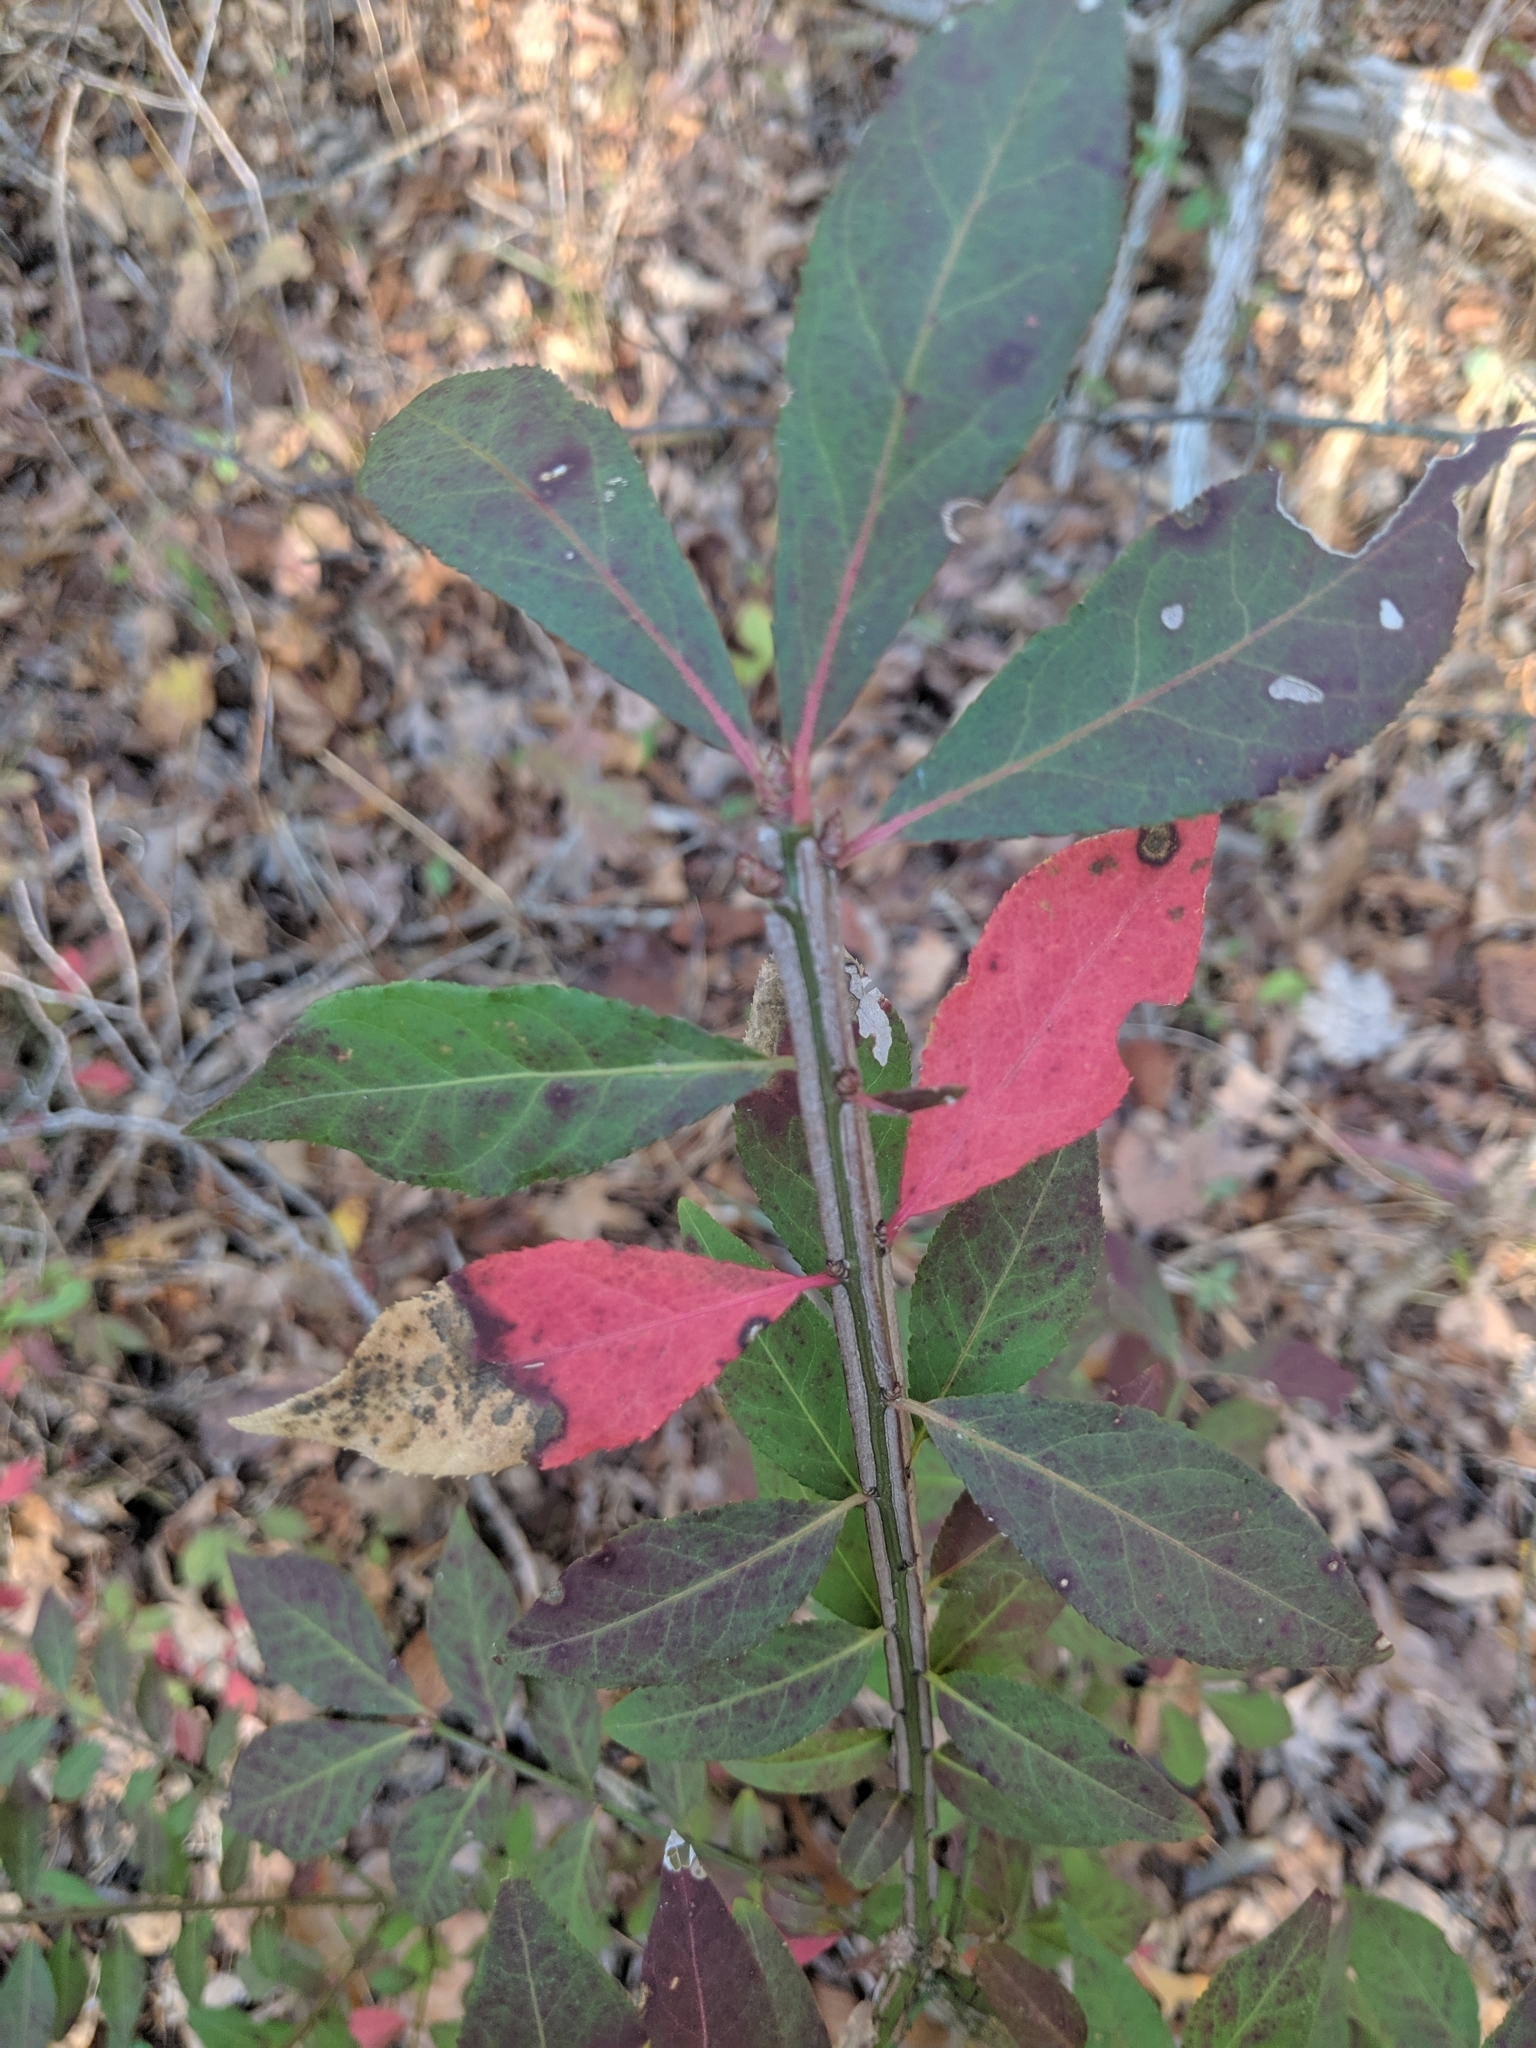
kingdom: Plantae
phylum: Tracheophyta
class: Magnoliopsida
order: Celastrales
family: Celastraceae
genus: Euonymus
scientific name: Euonymus alatus
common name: Winged euonymus
